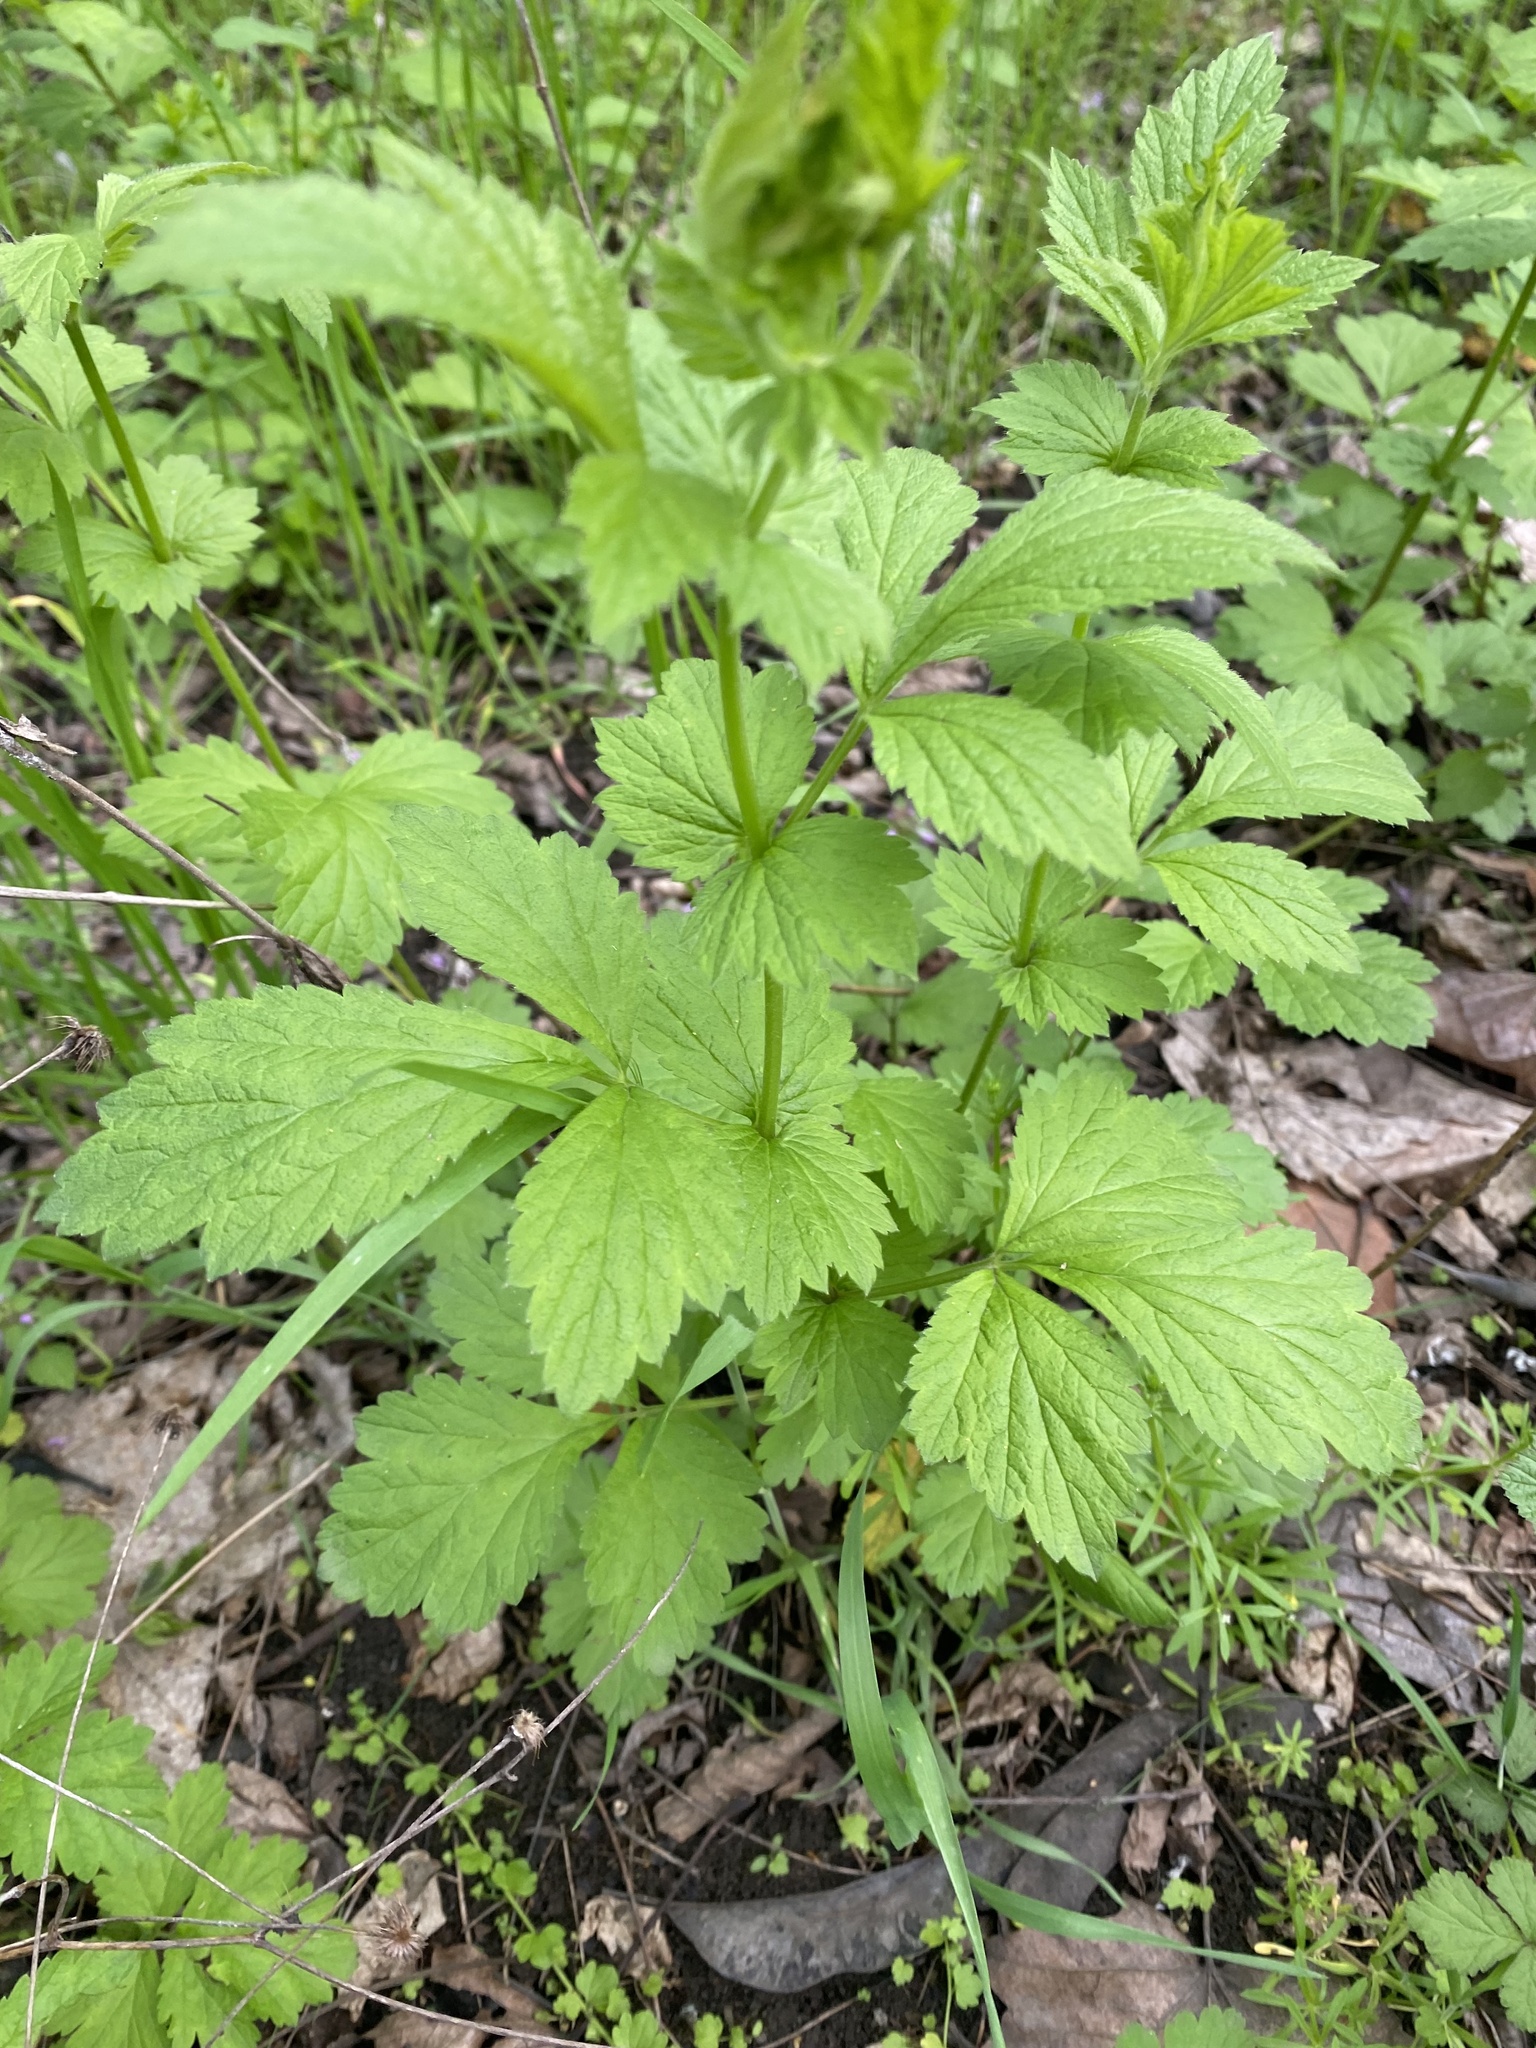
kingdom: Plantae
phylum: Tracheophyta
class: Magnoliopsida
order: Rosales
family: Rosaceae
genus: Geum
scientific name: Geum urbanum
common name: Wood avens
